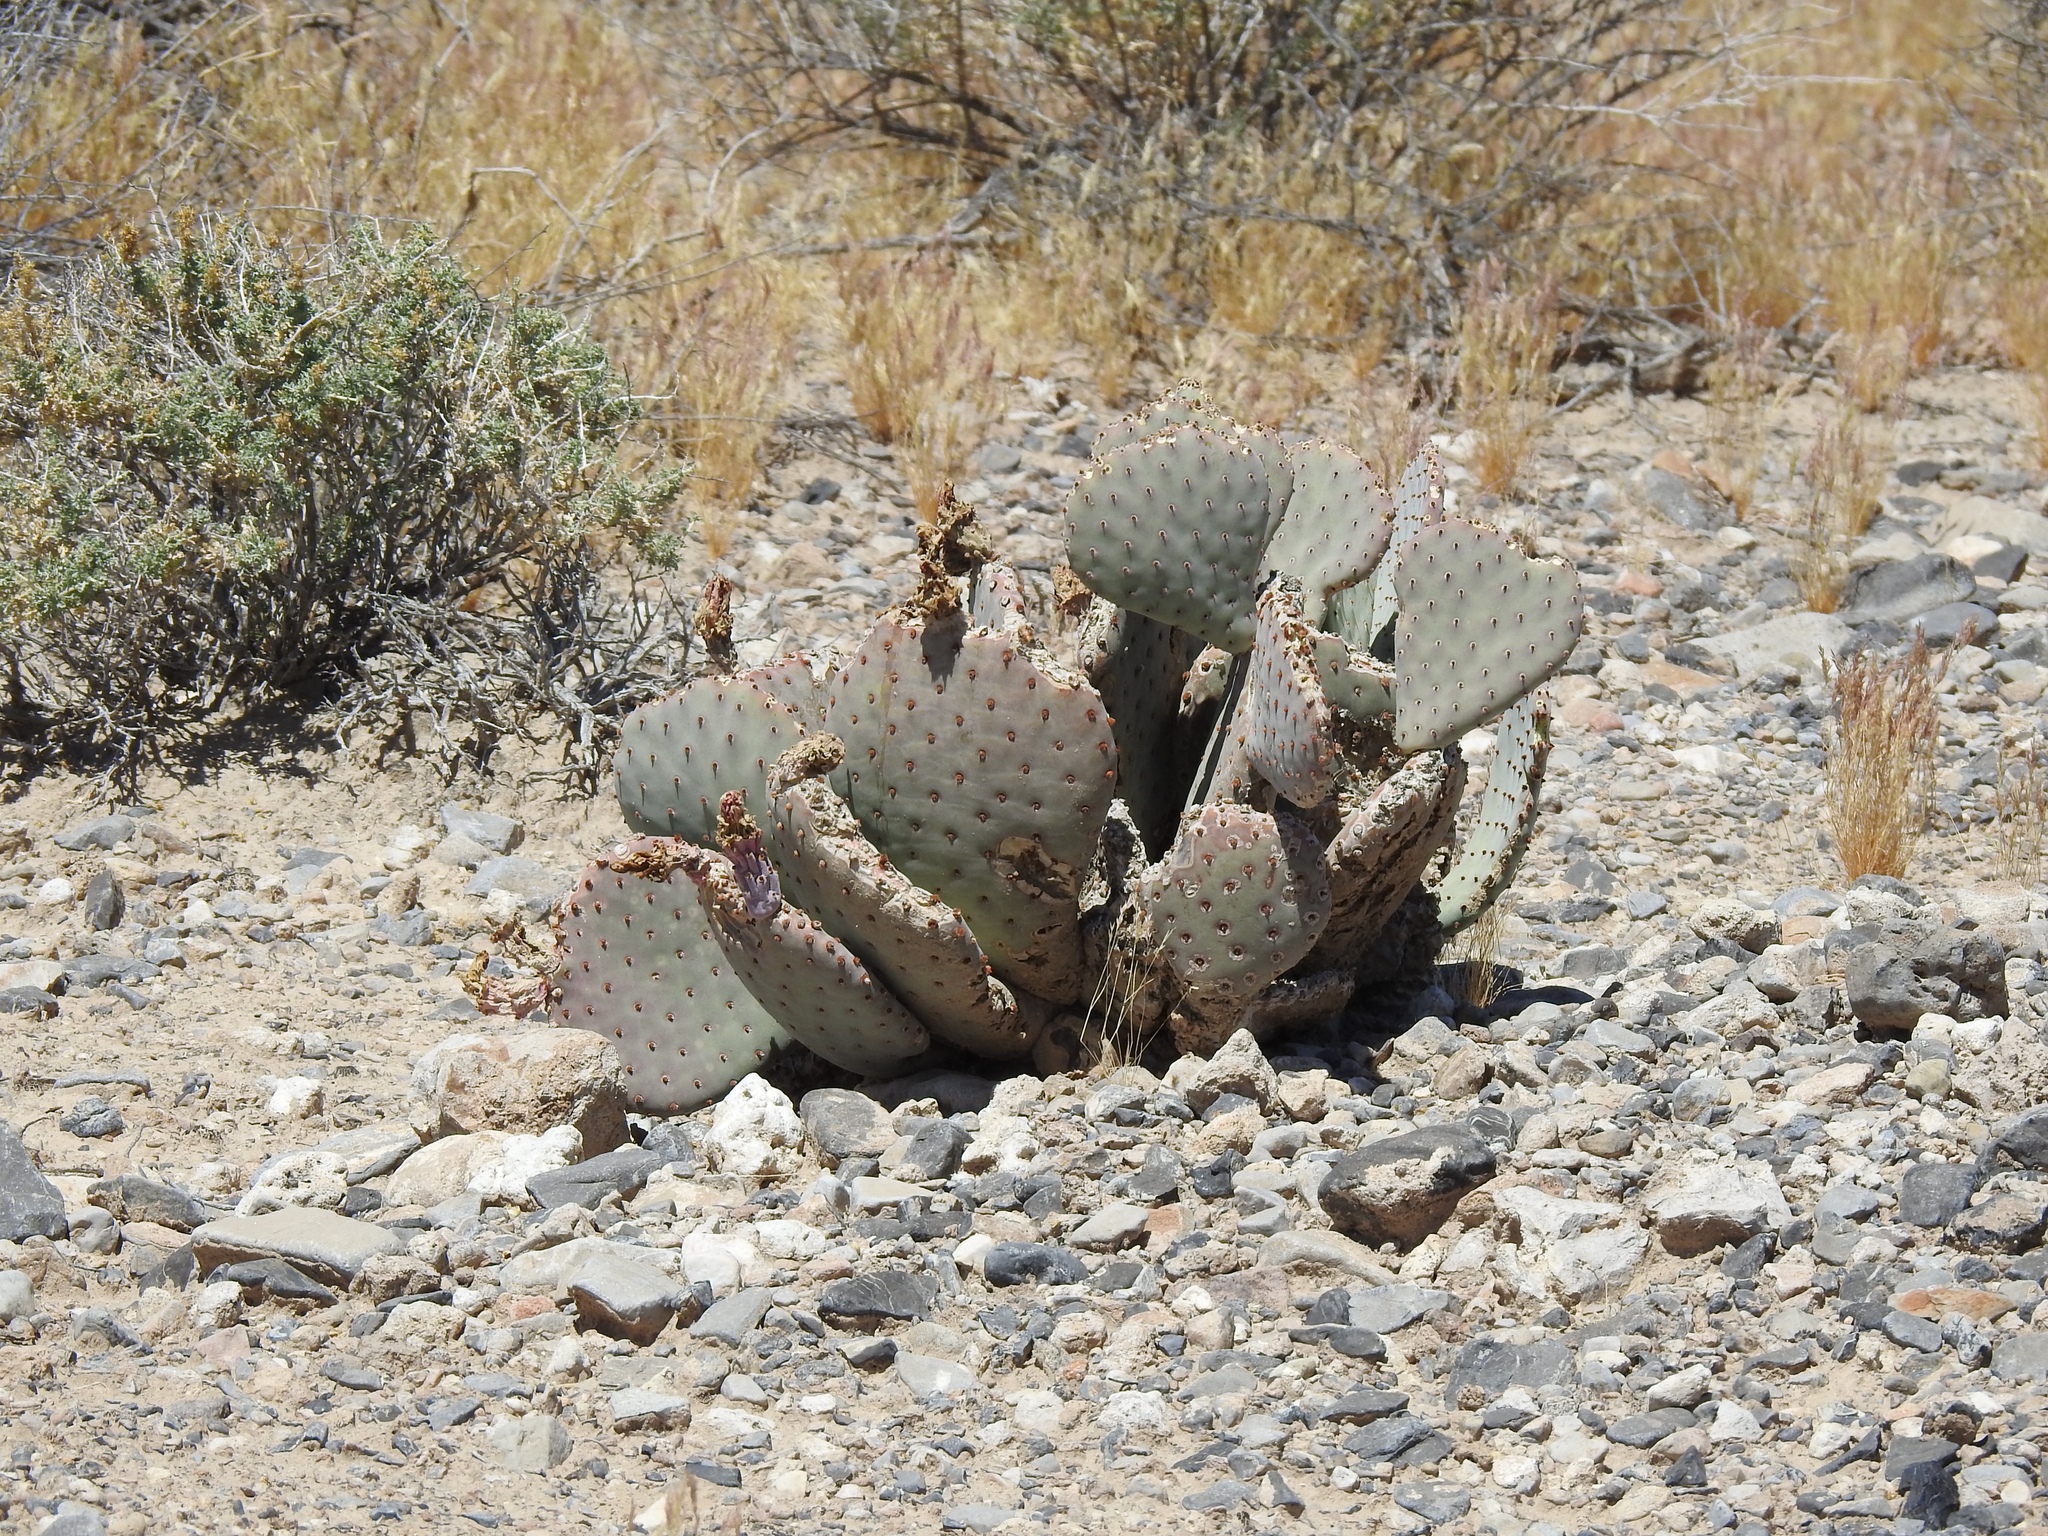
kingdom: Plantae
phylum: Tracheophyta
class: Magnoliopsida
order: Caryophyllales
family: Cactaceae
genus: Opuntia
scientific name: Opuntia basilaris
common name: Beavertail prickly-pear
